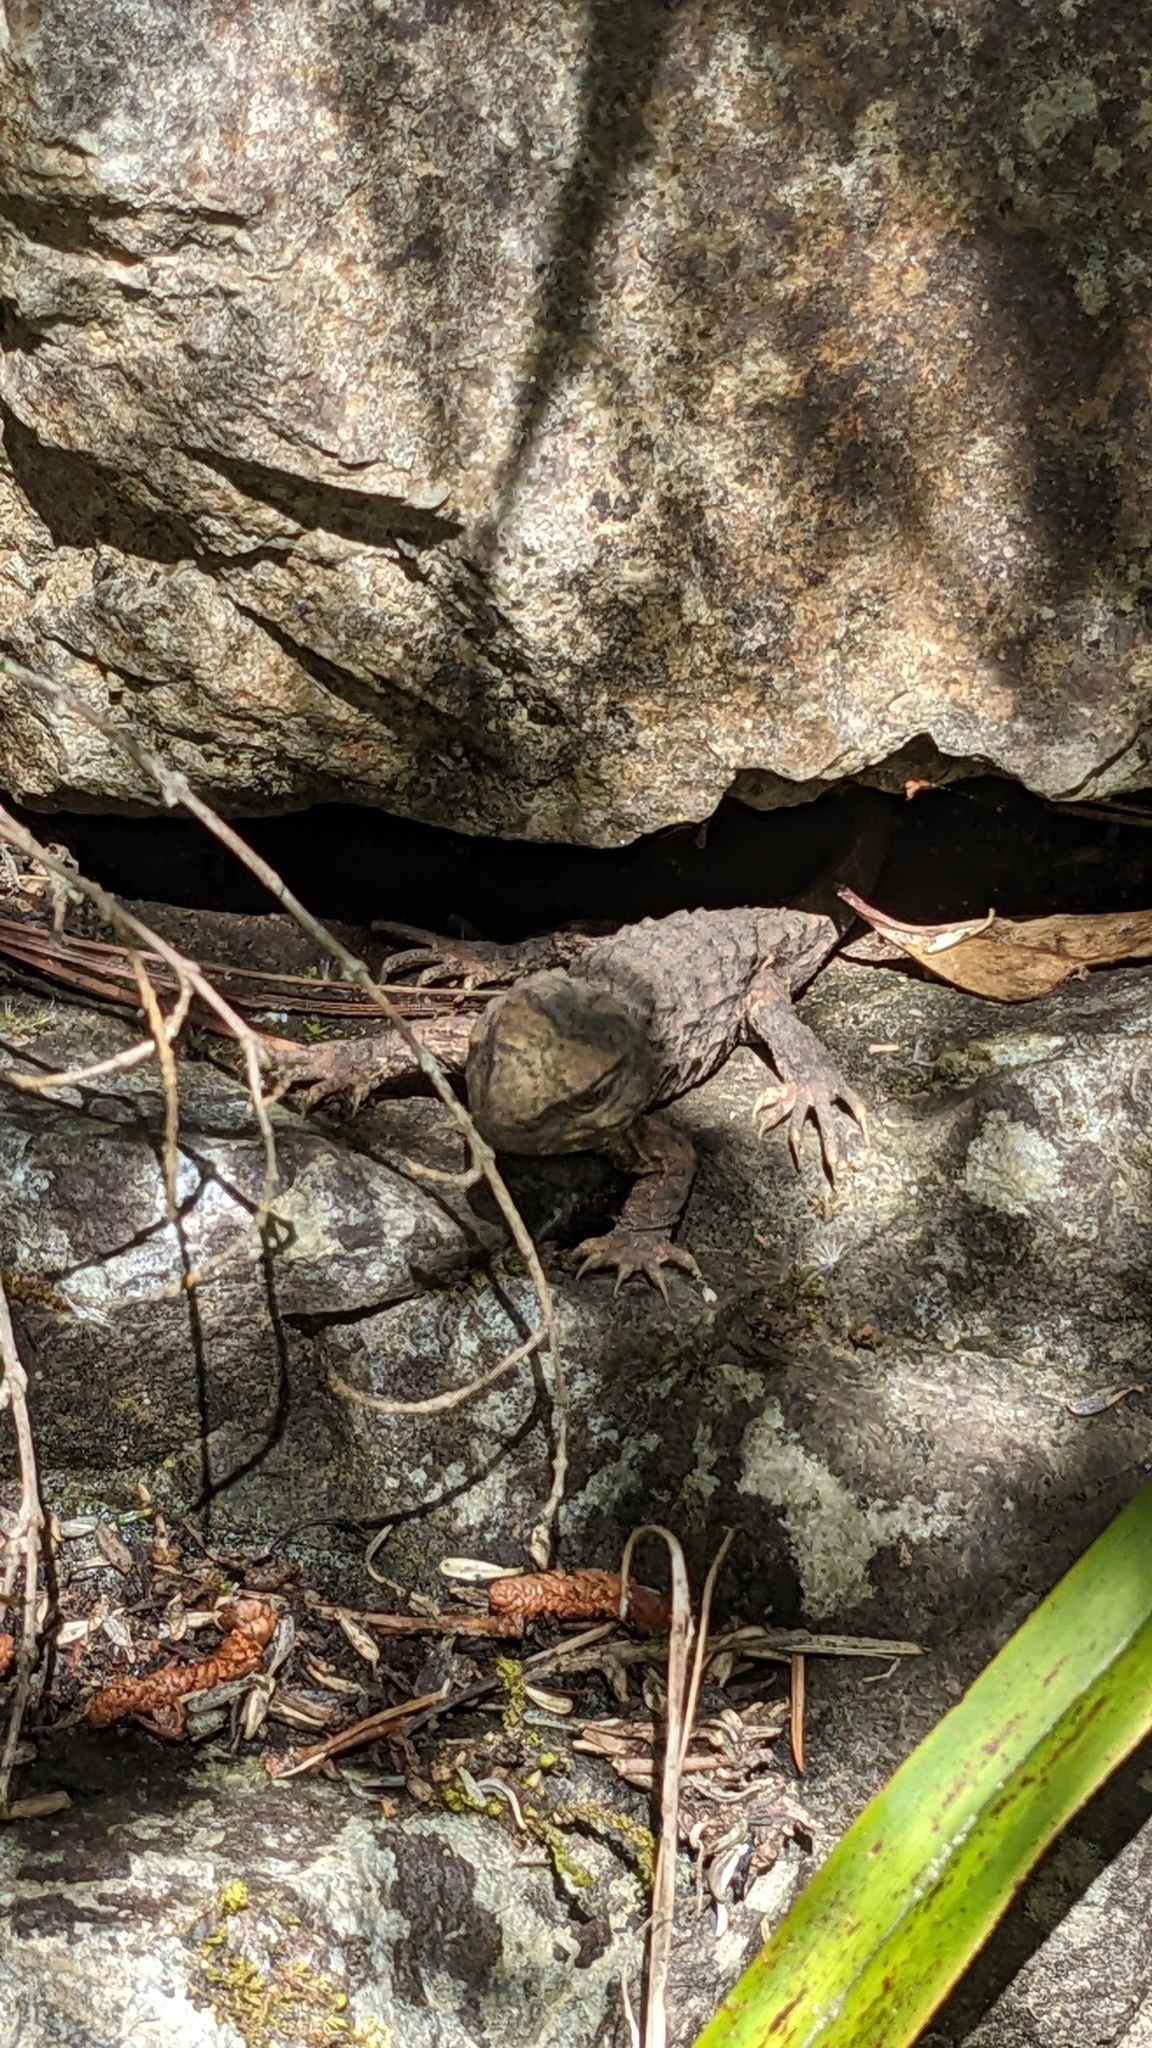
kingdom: Animalia
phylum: Chordata
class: Sphenodontia
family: Sphenodontidae
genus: Sphenodon
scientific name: Sphenodon punctatus
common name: Tuatara
